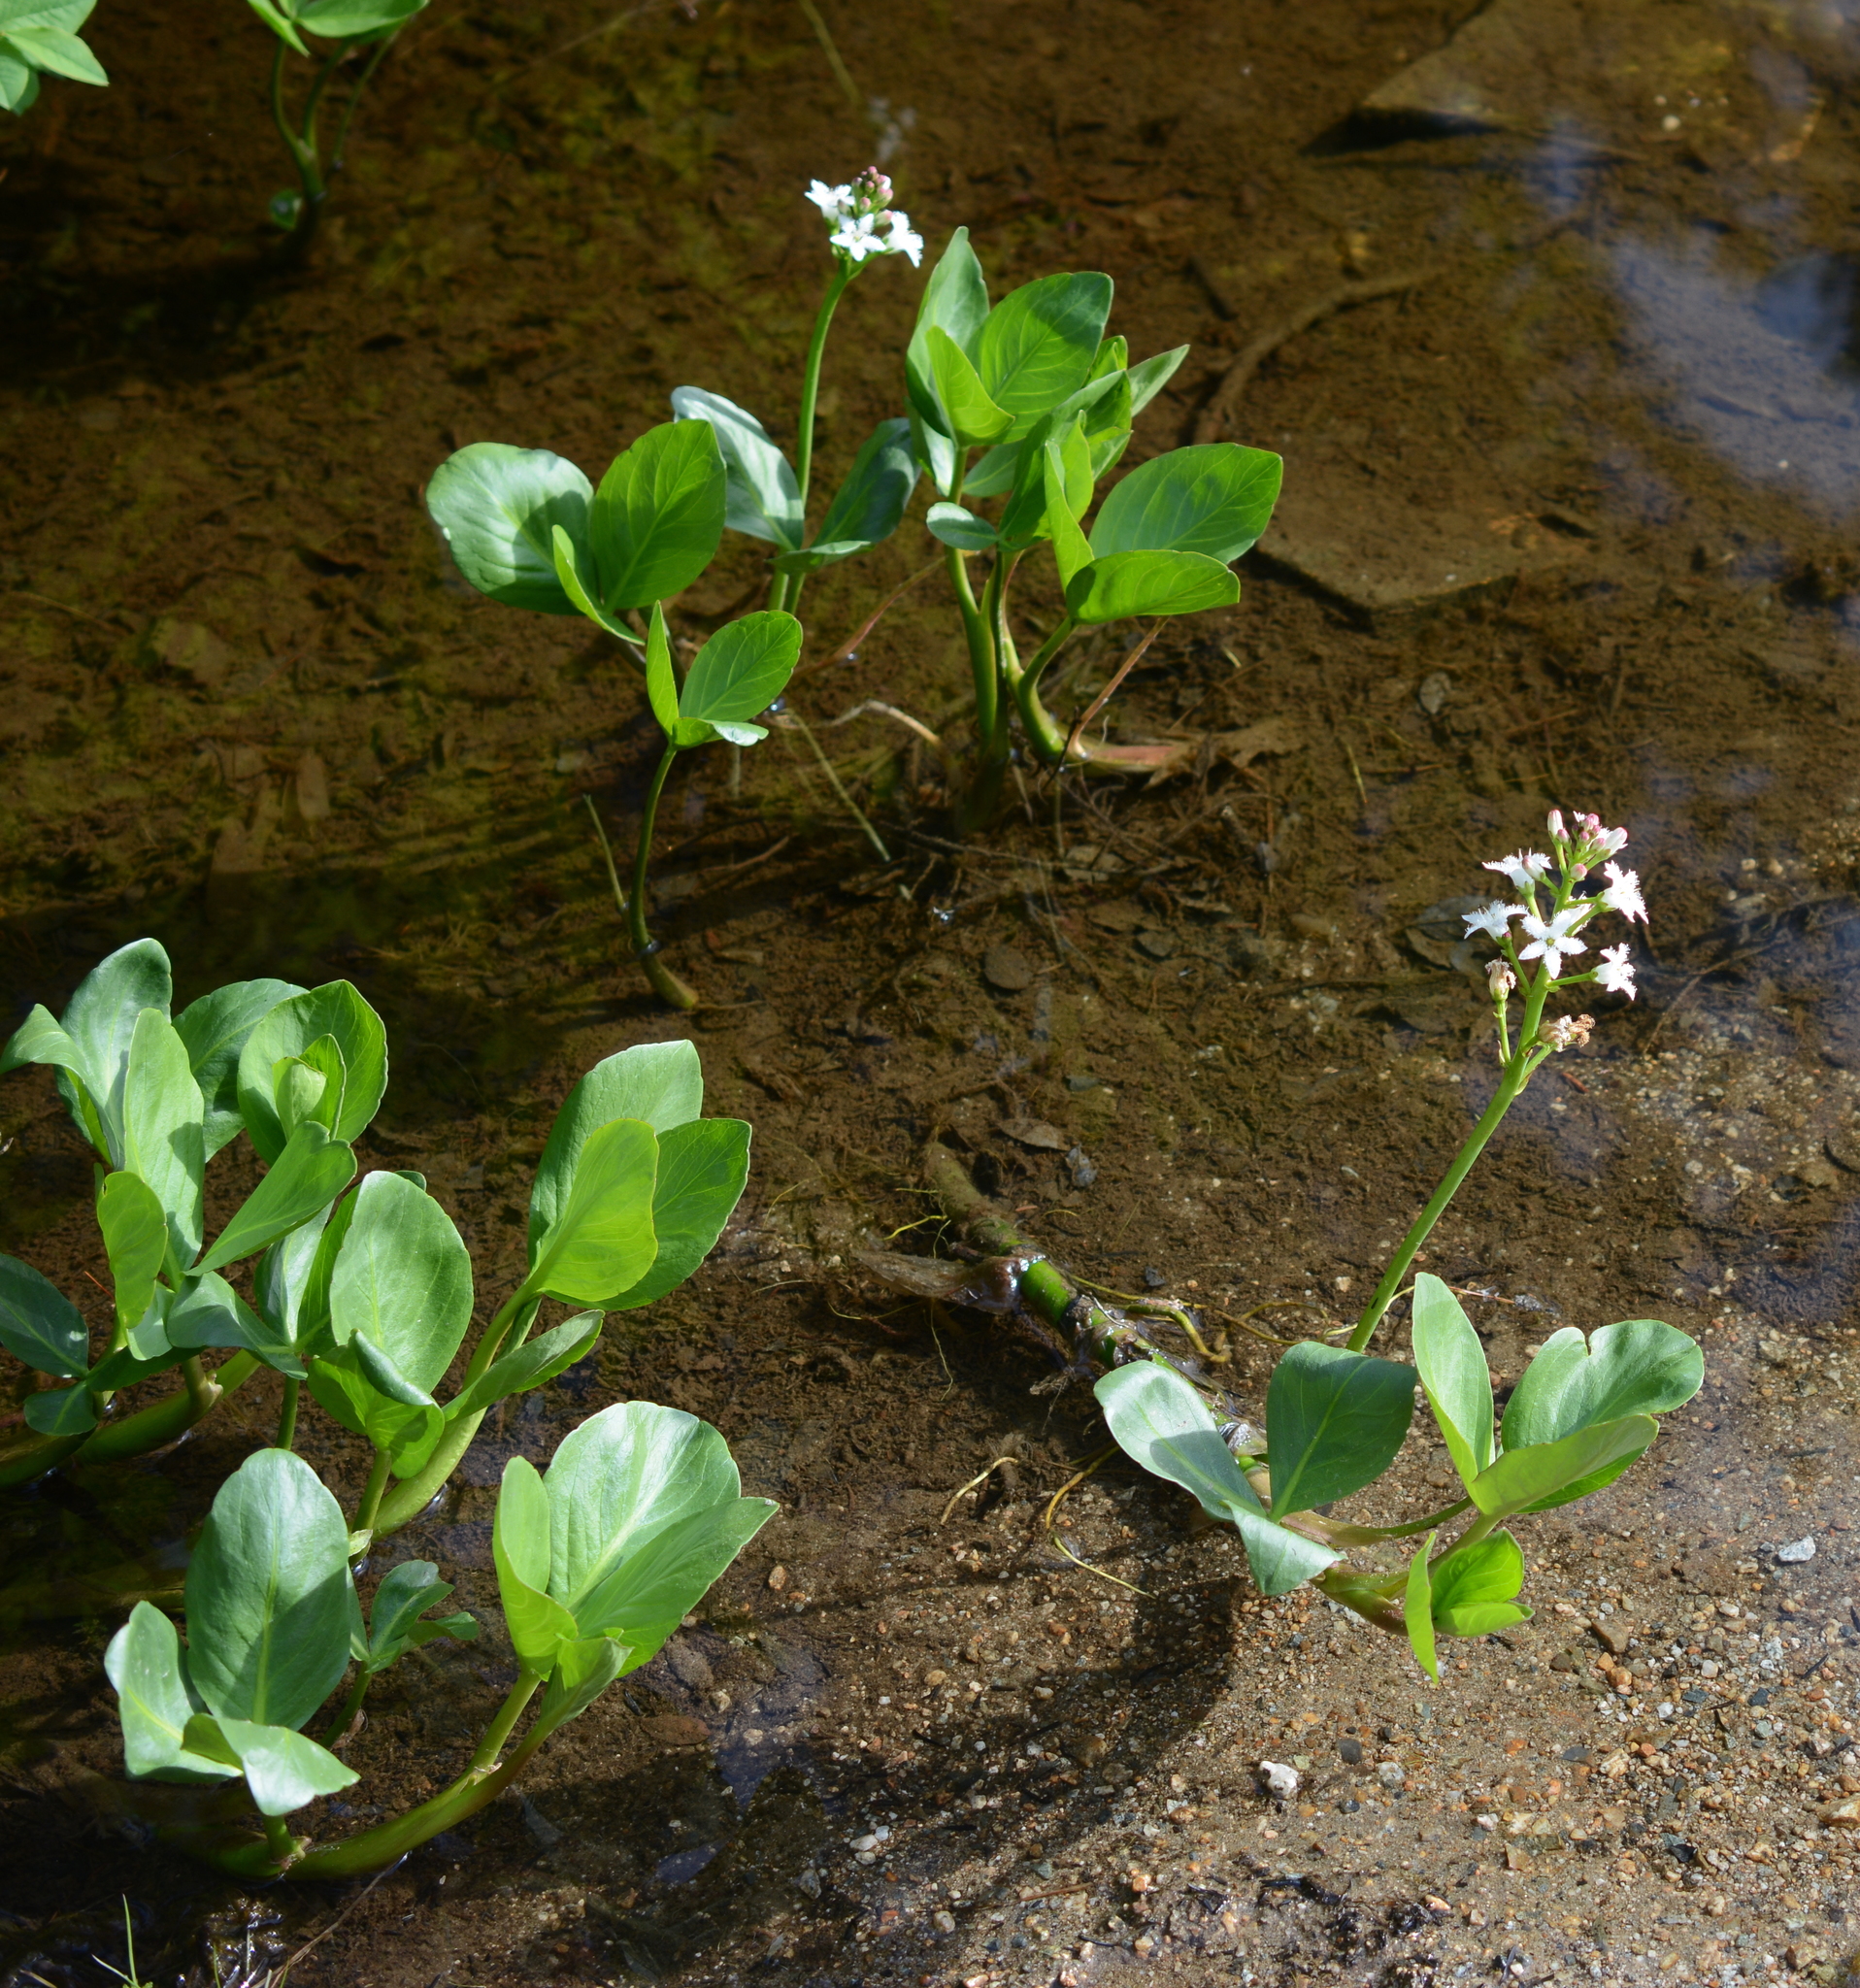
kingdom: Plantae
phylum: Tracheophyta
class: Magnoliopsida
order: Asterales
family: Menyanthaceae
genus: Menyanthes
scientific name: Menyanthes trifoliata
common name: Bogbean
